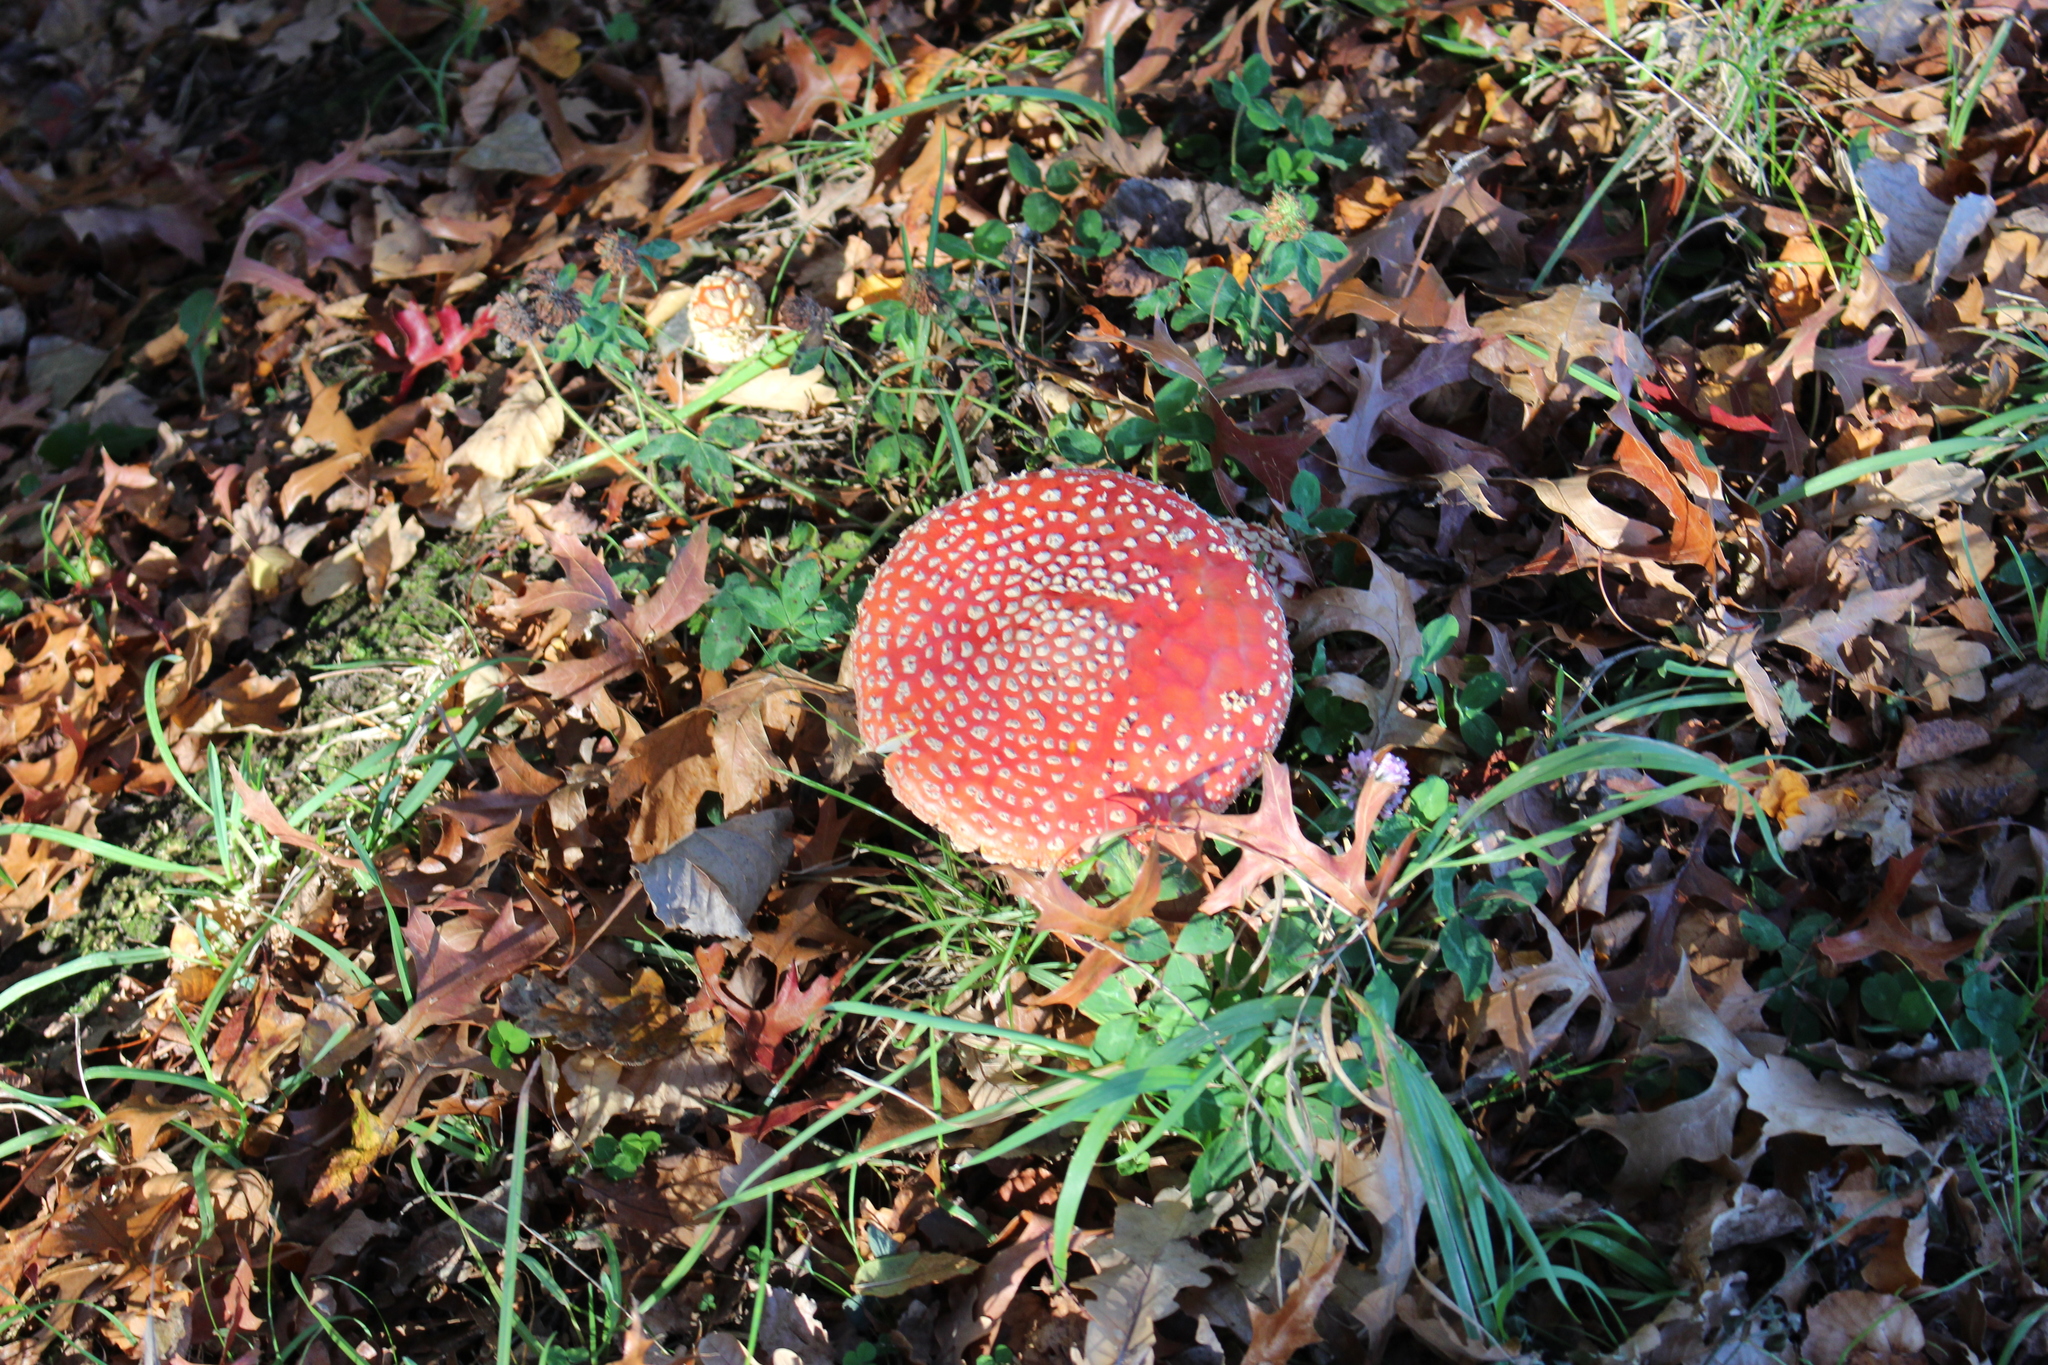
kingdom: Fungi
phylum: Basidiomycota
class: Agaricomycetes
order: Agaricales
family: Amanitaceae
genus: Amanita
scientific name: Amanita muscaria
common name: Fly agaric
